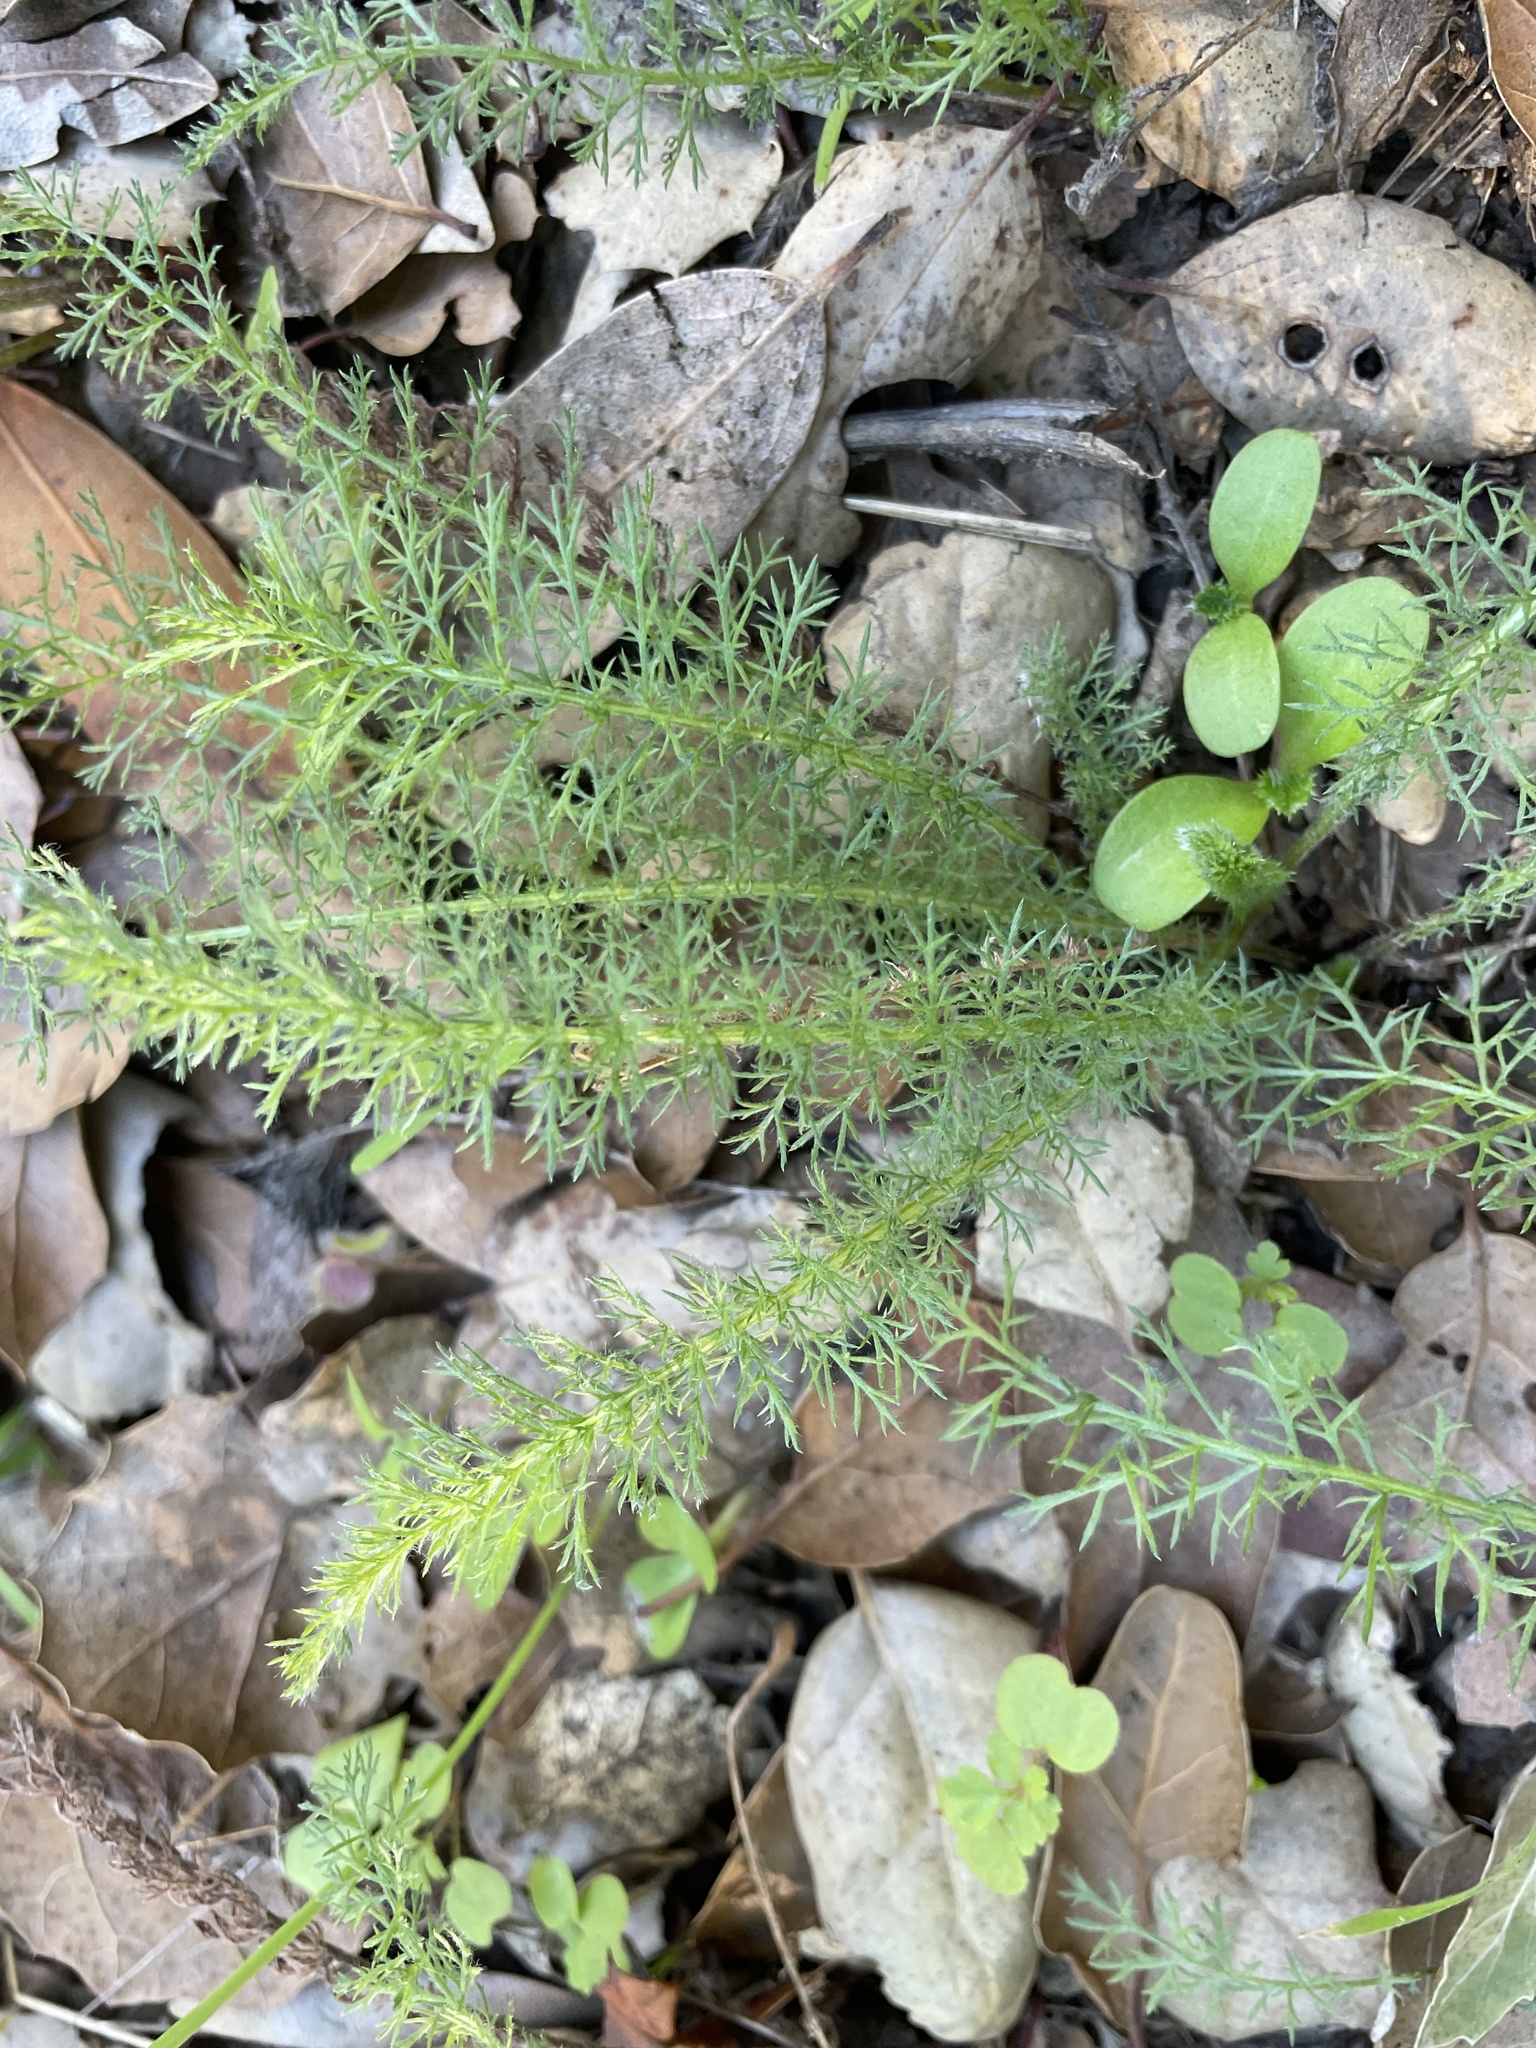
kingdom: Plantae
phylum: Tracheophyta
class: Magnoliopsida
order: Asterales
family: Asteraceae
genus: Achillea
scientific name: Achillea millefolium
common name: Yarrow
